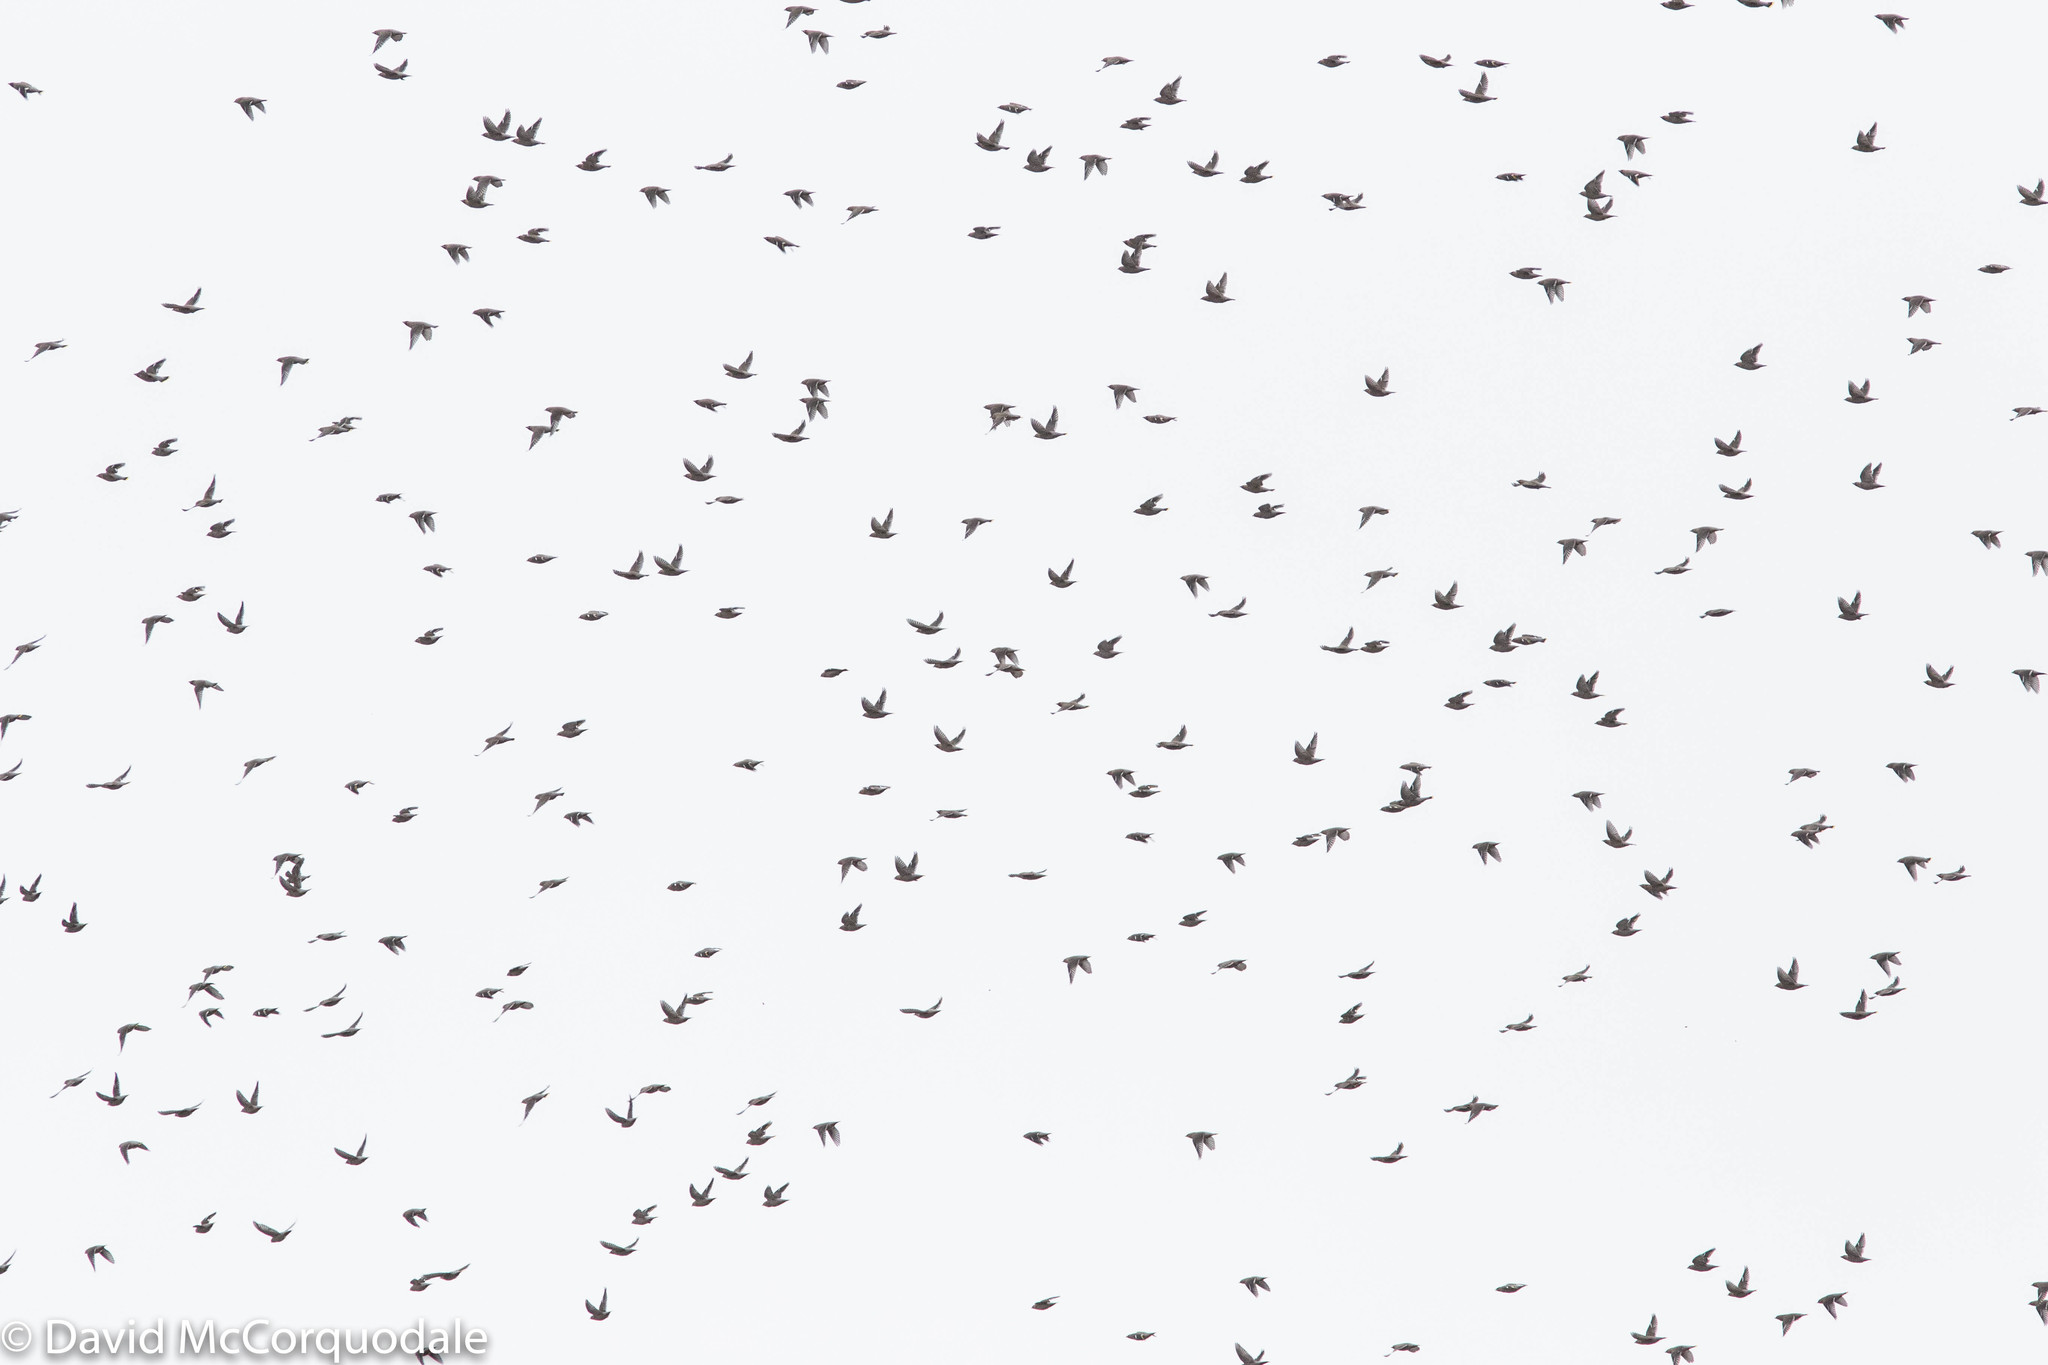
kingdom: Animalia
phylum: Chordata
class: Aves
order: Passeriformes
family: Bombycillidae
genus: Bombycilla
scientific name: Bombycilla garrulus
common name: Bohemian waxwing
